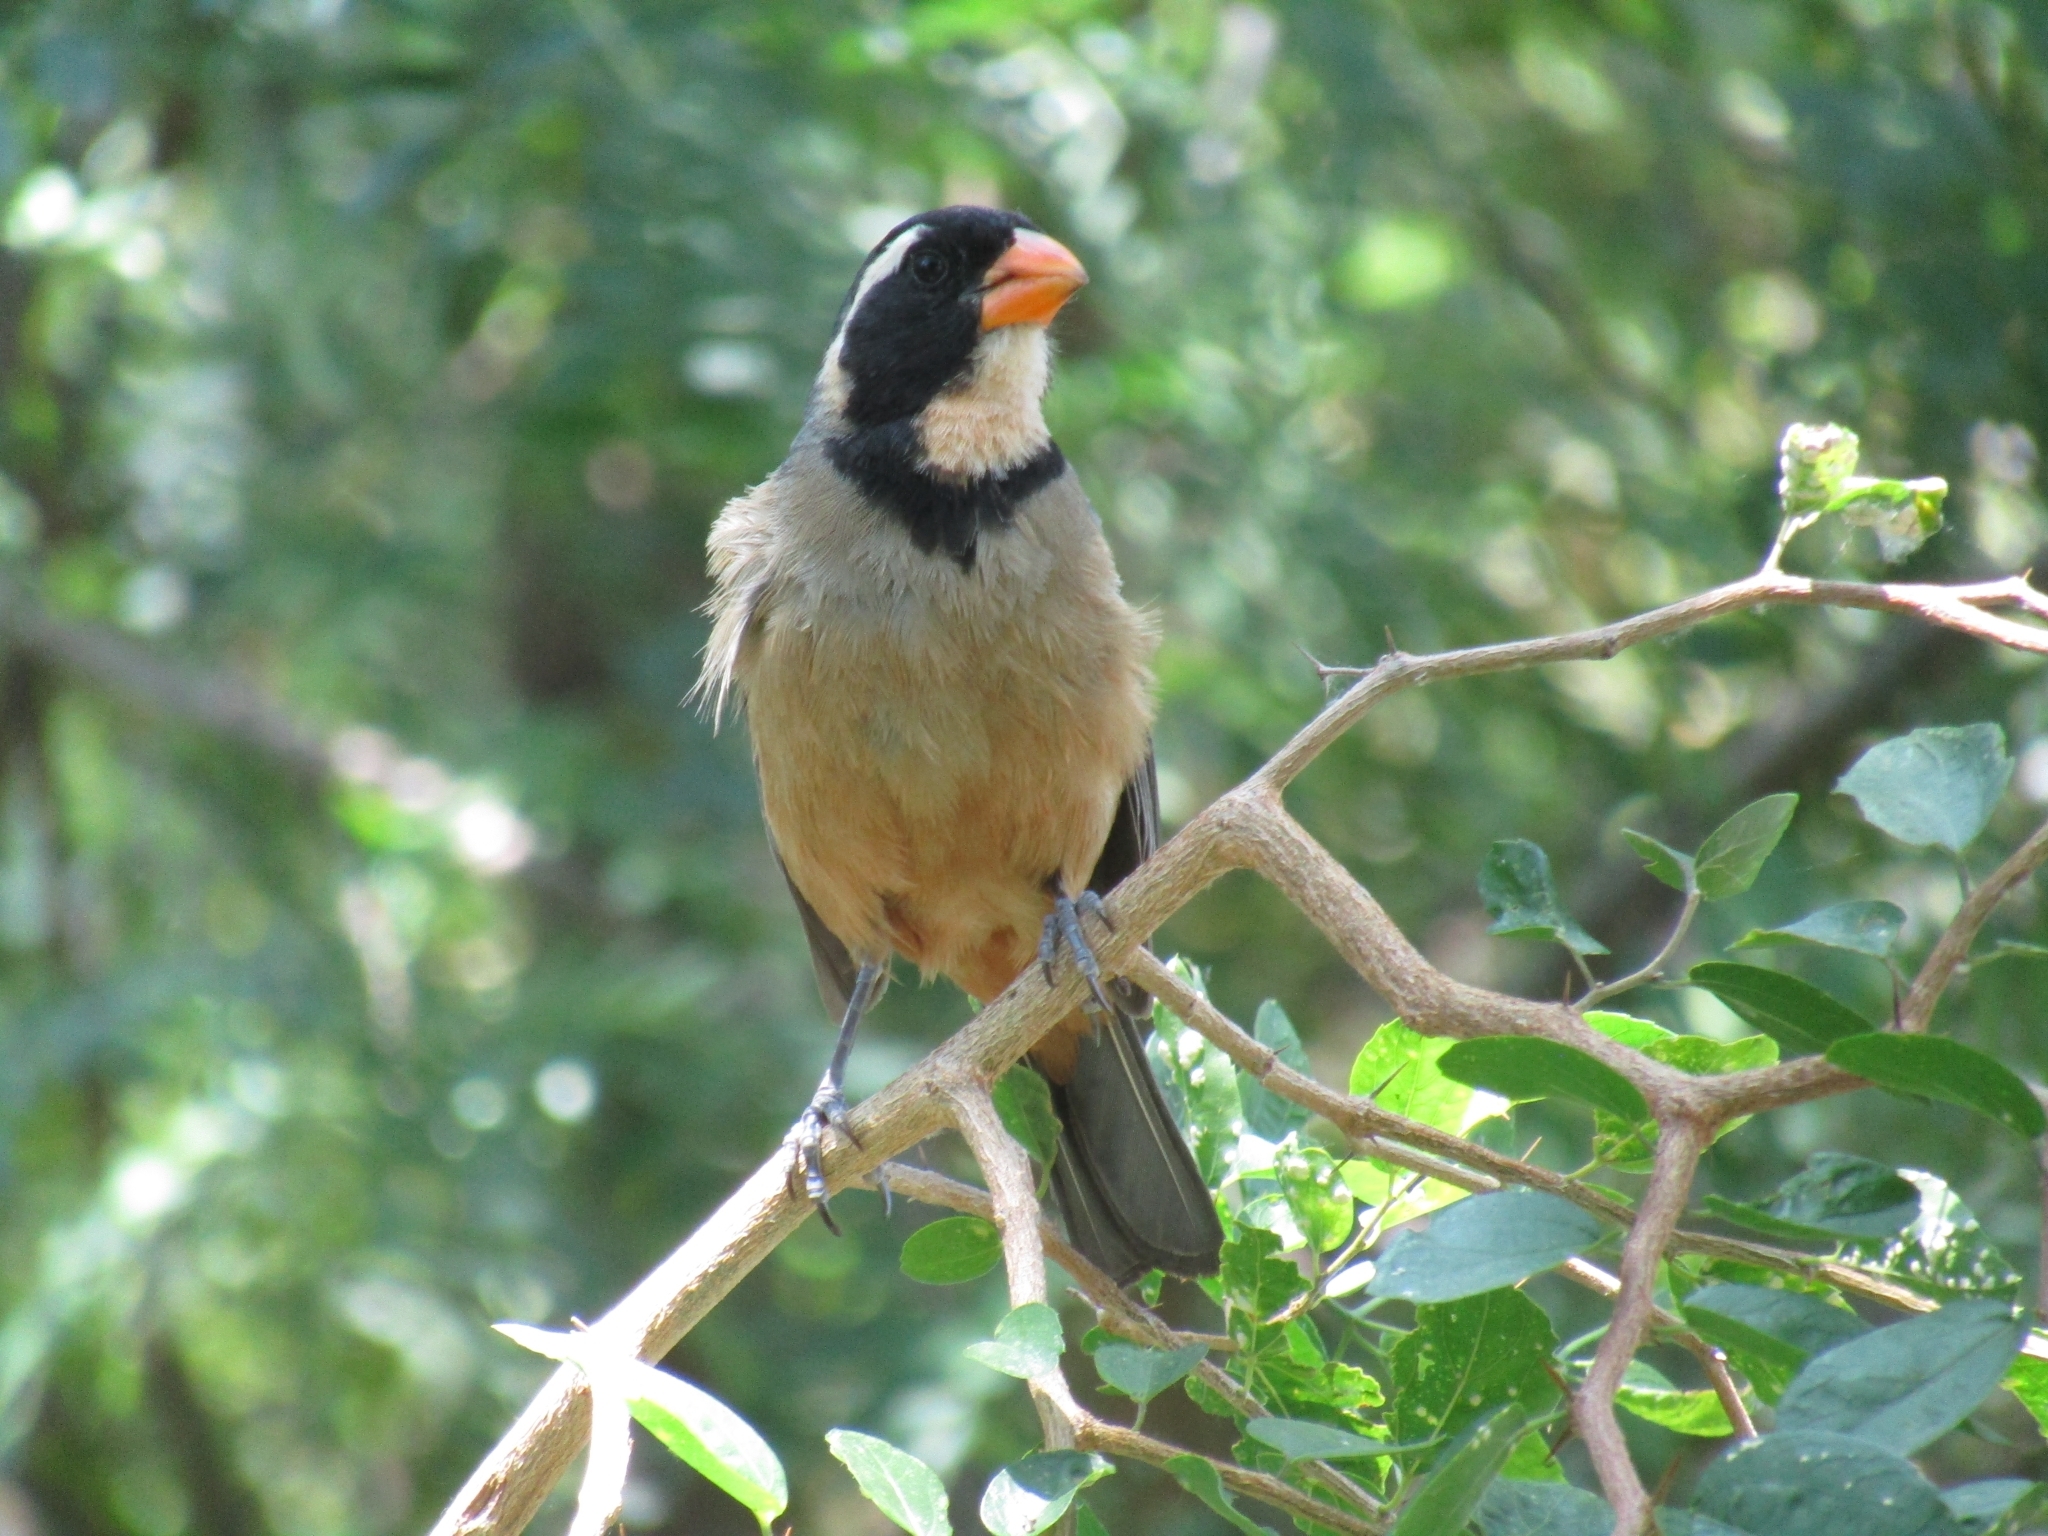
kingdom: Animalia
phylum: Chordata
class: Aves
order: Passeriformes
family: Thraupidae
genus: Saltator
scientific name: Saltator aurantiirostris
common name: Golden-billed saltator
